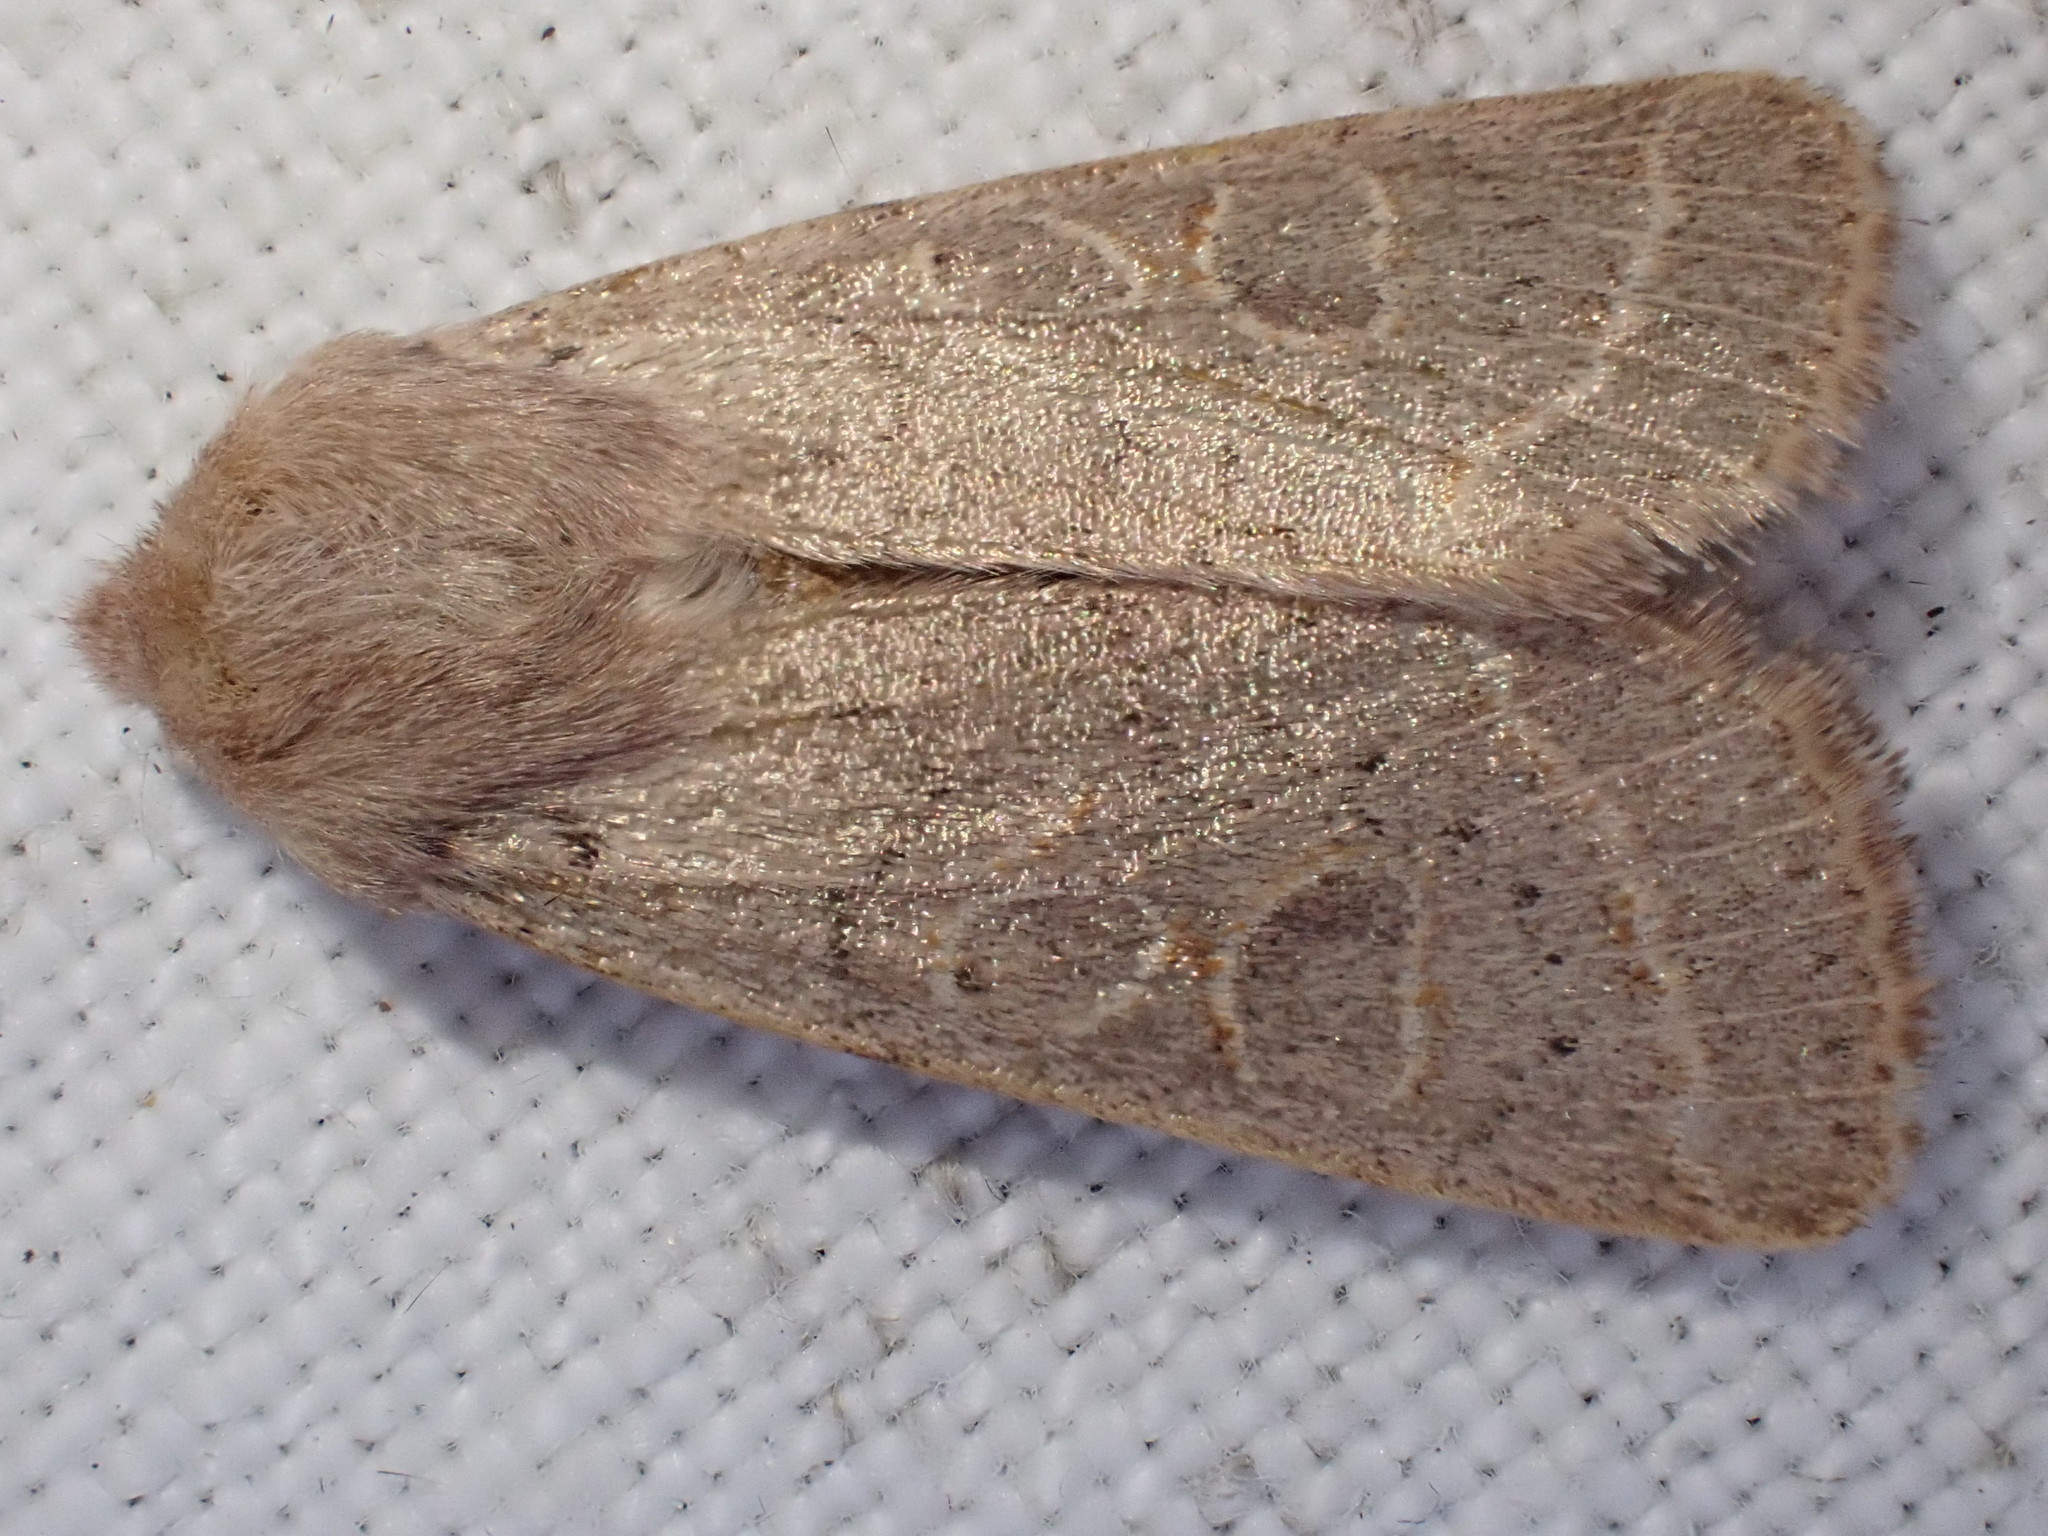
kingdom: Animalia
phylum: Arthropoda
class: Insecta
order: Lepidoptera
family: Noctuidae
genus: Orthosia
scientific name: Orthosia cerasi
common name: Common quaker
